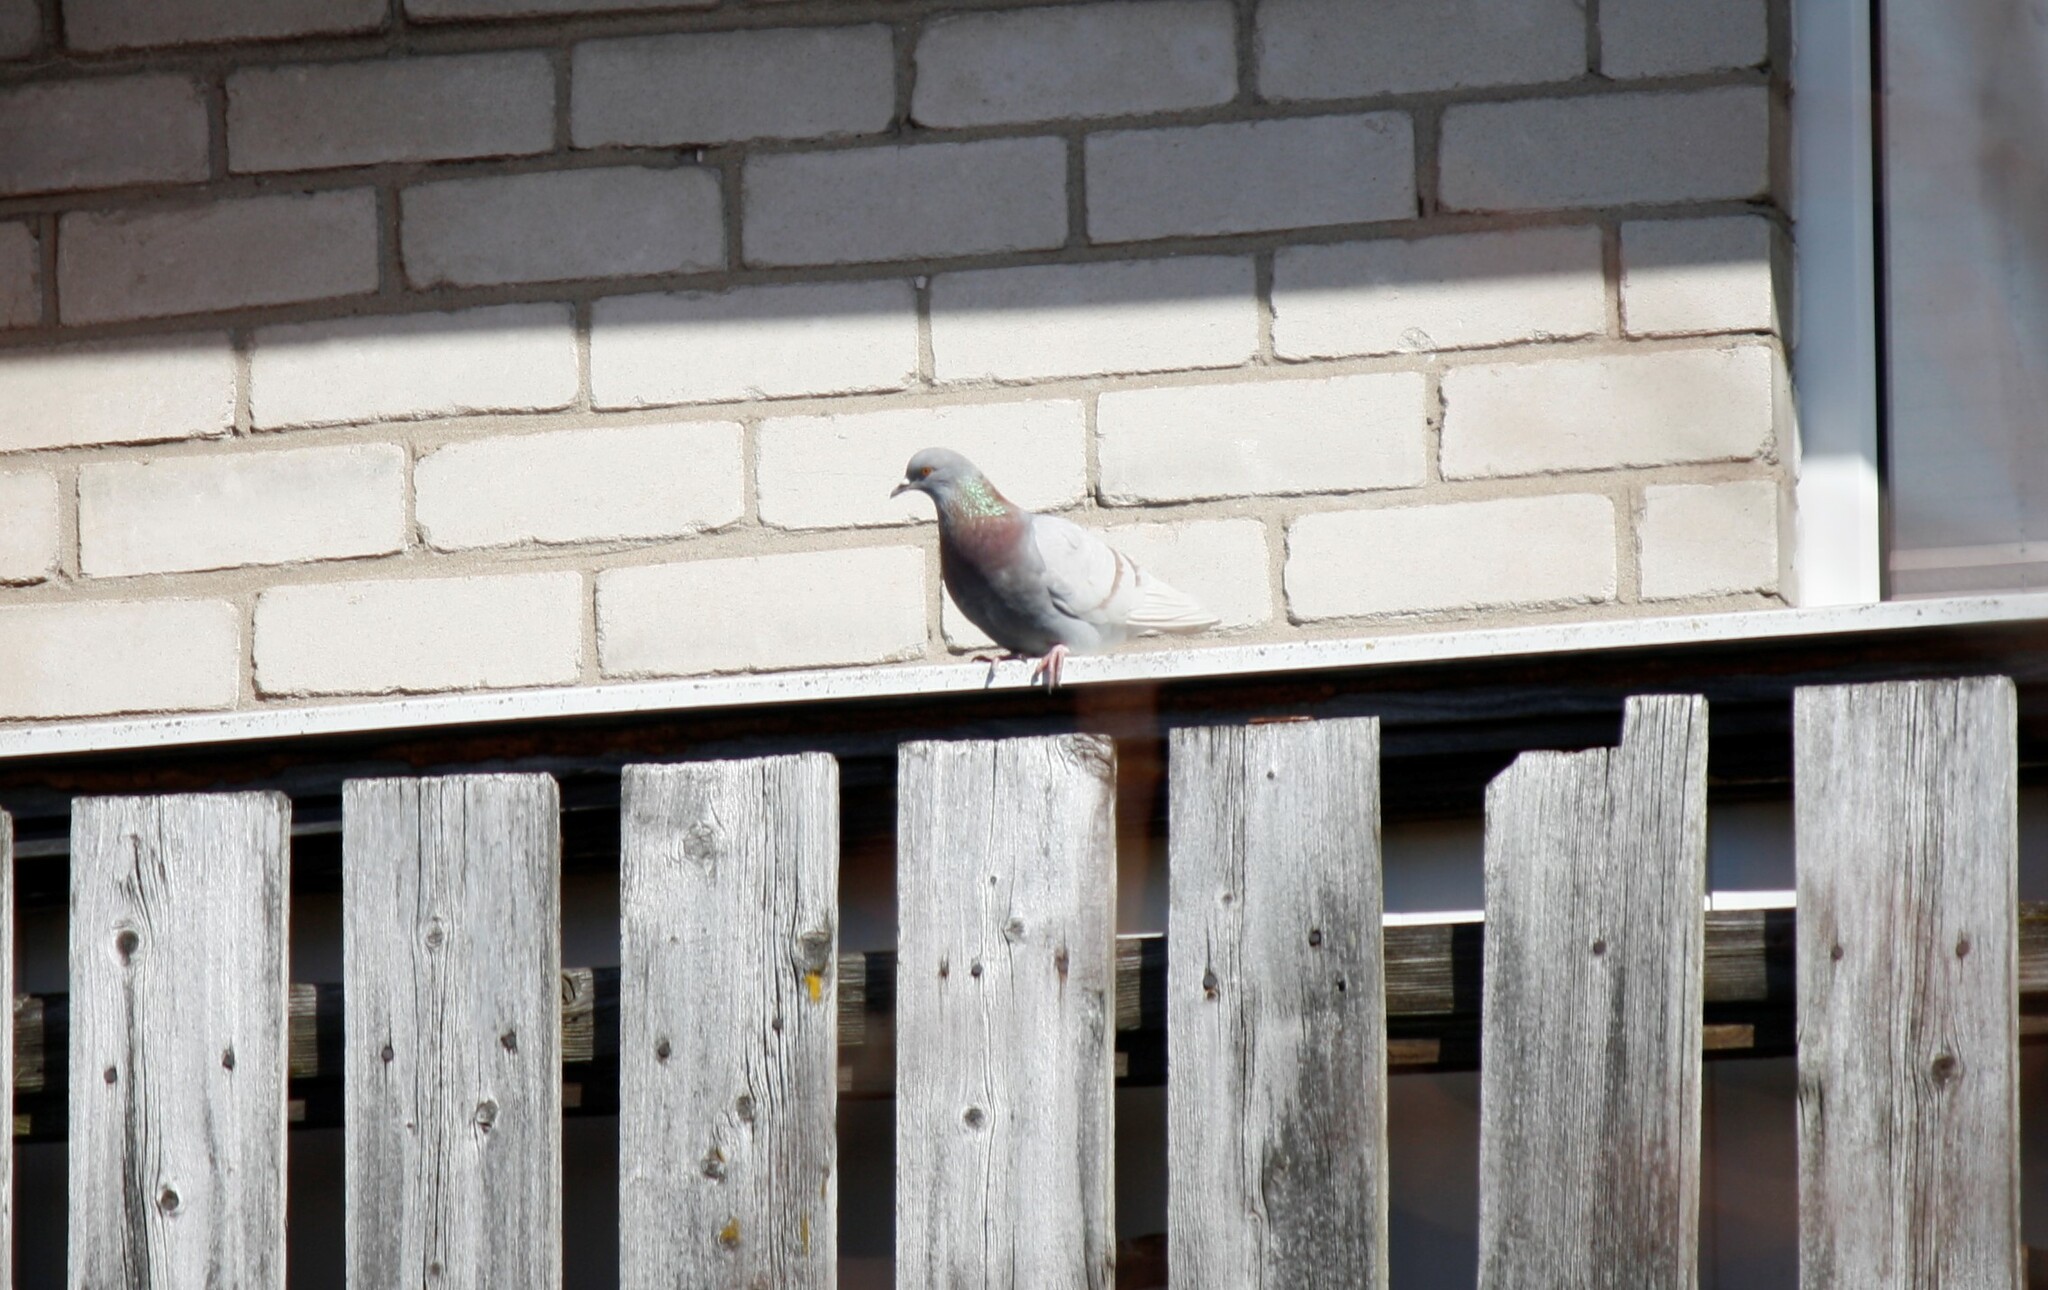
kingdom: Animalia
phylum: Chordata
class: Aves
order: Columbiformes
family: Columbidae
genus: Columba
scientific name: Columba livia
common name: Rock pigeon
